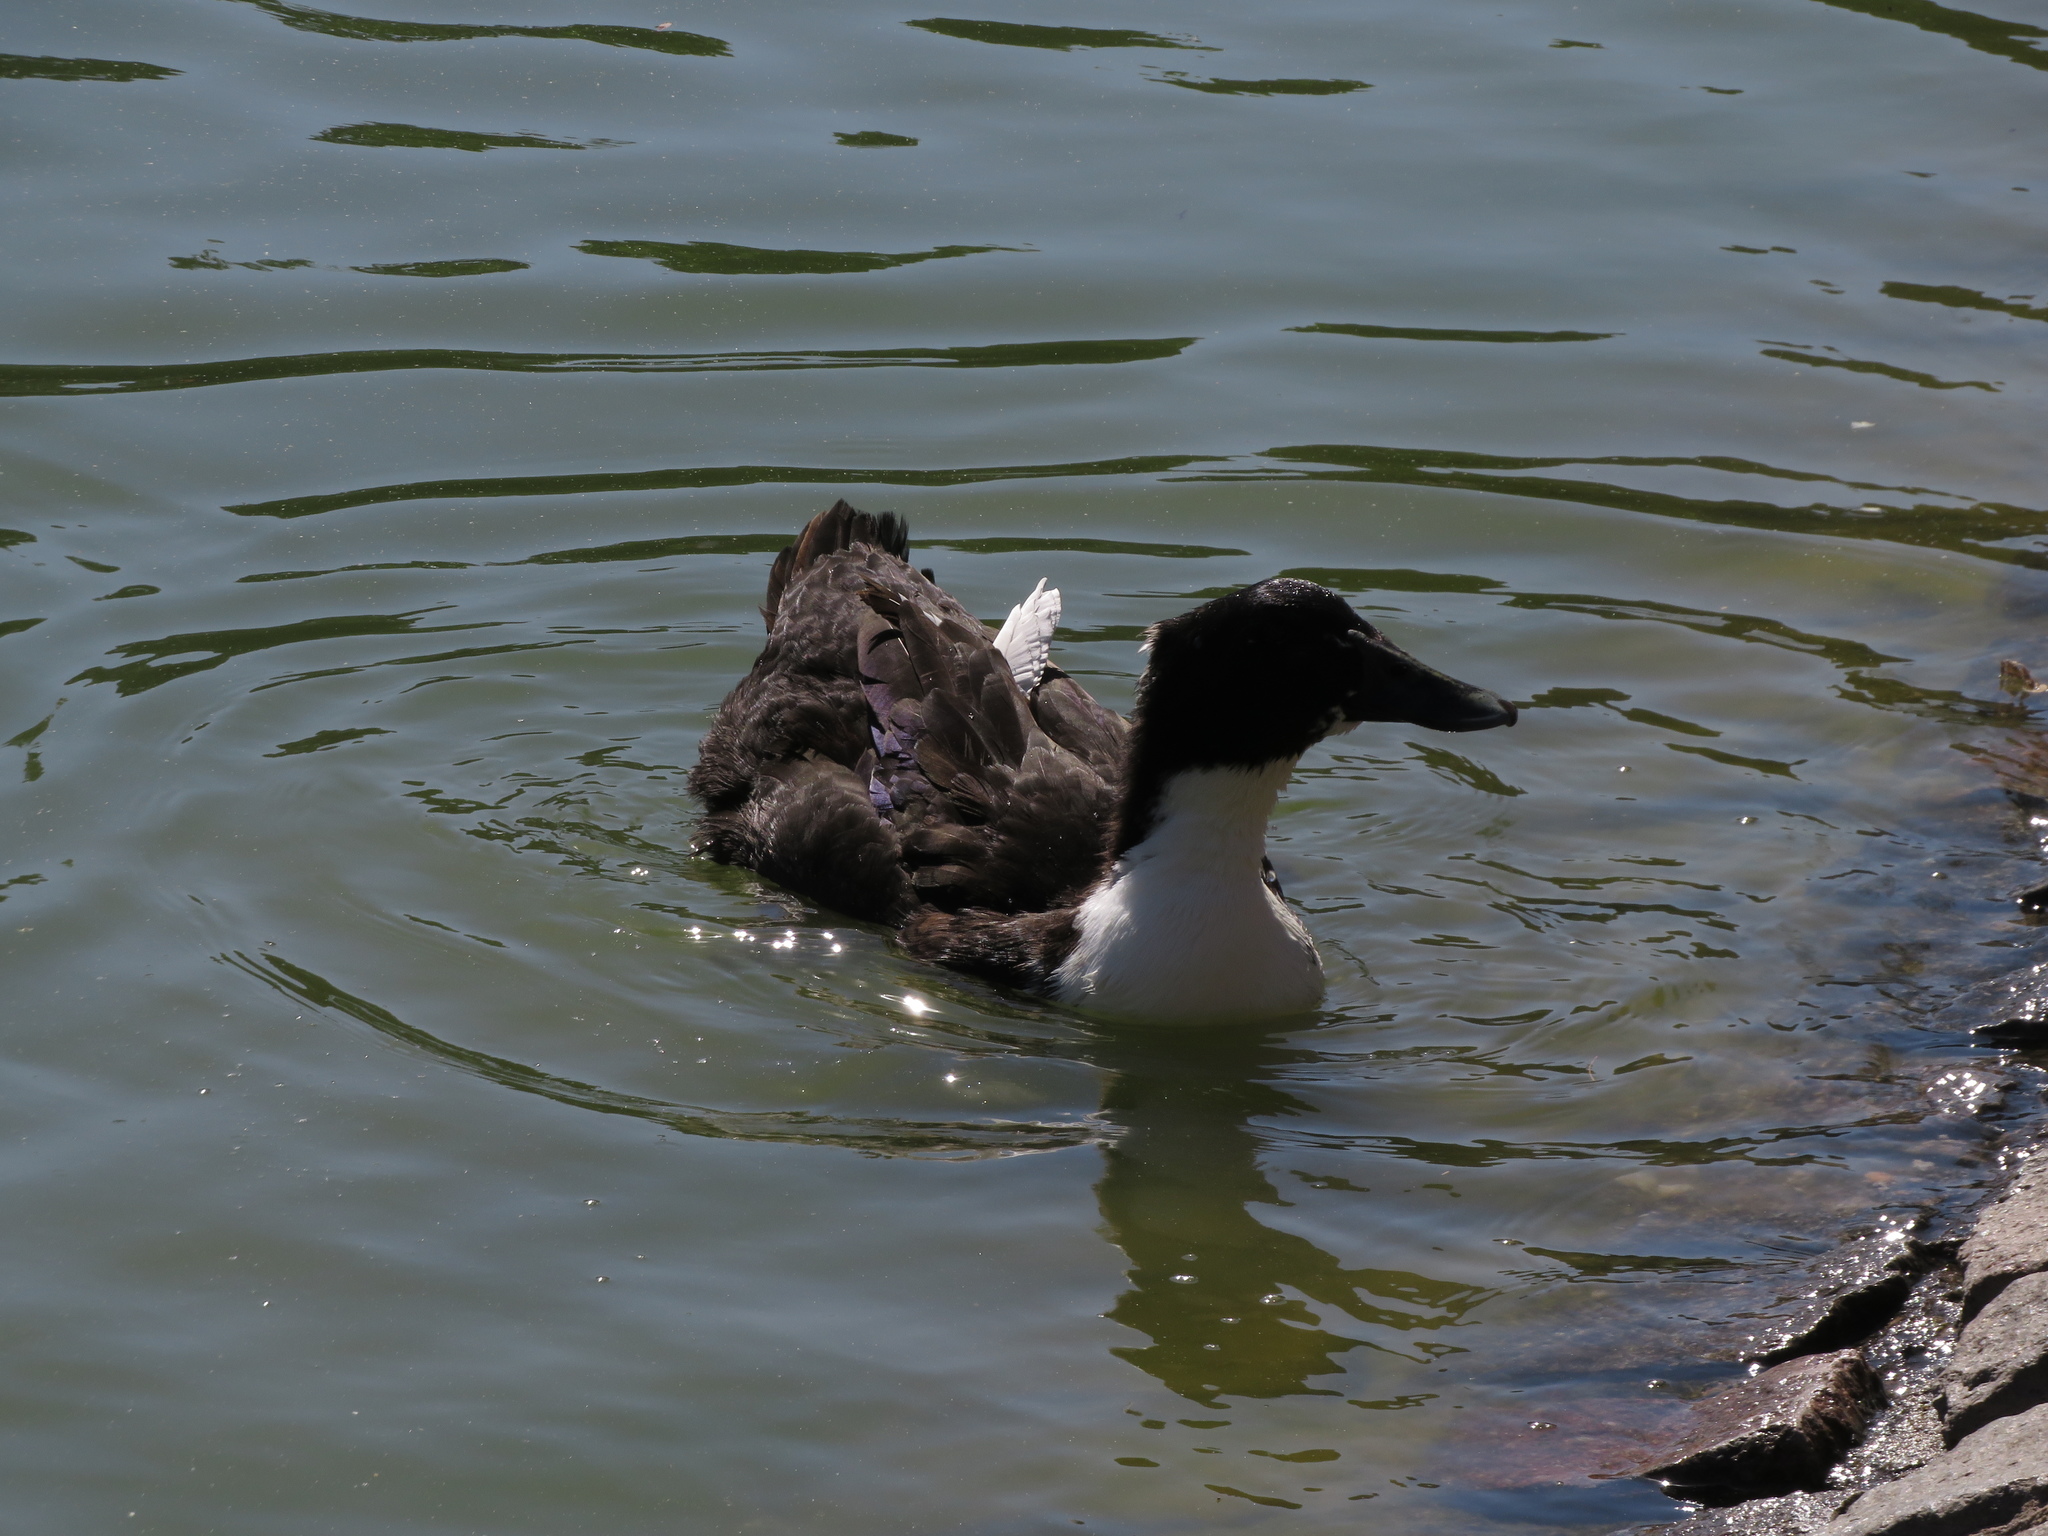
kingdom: Animalia
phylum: Chordata
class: Aves
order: Anseriformes
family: Anatidae
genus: Anas
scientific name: Anas platyrhynchos
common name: Mallard
